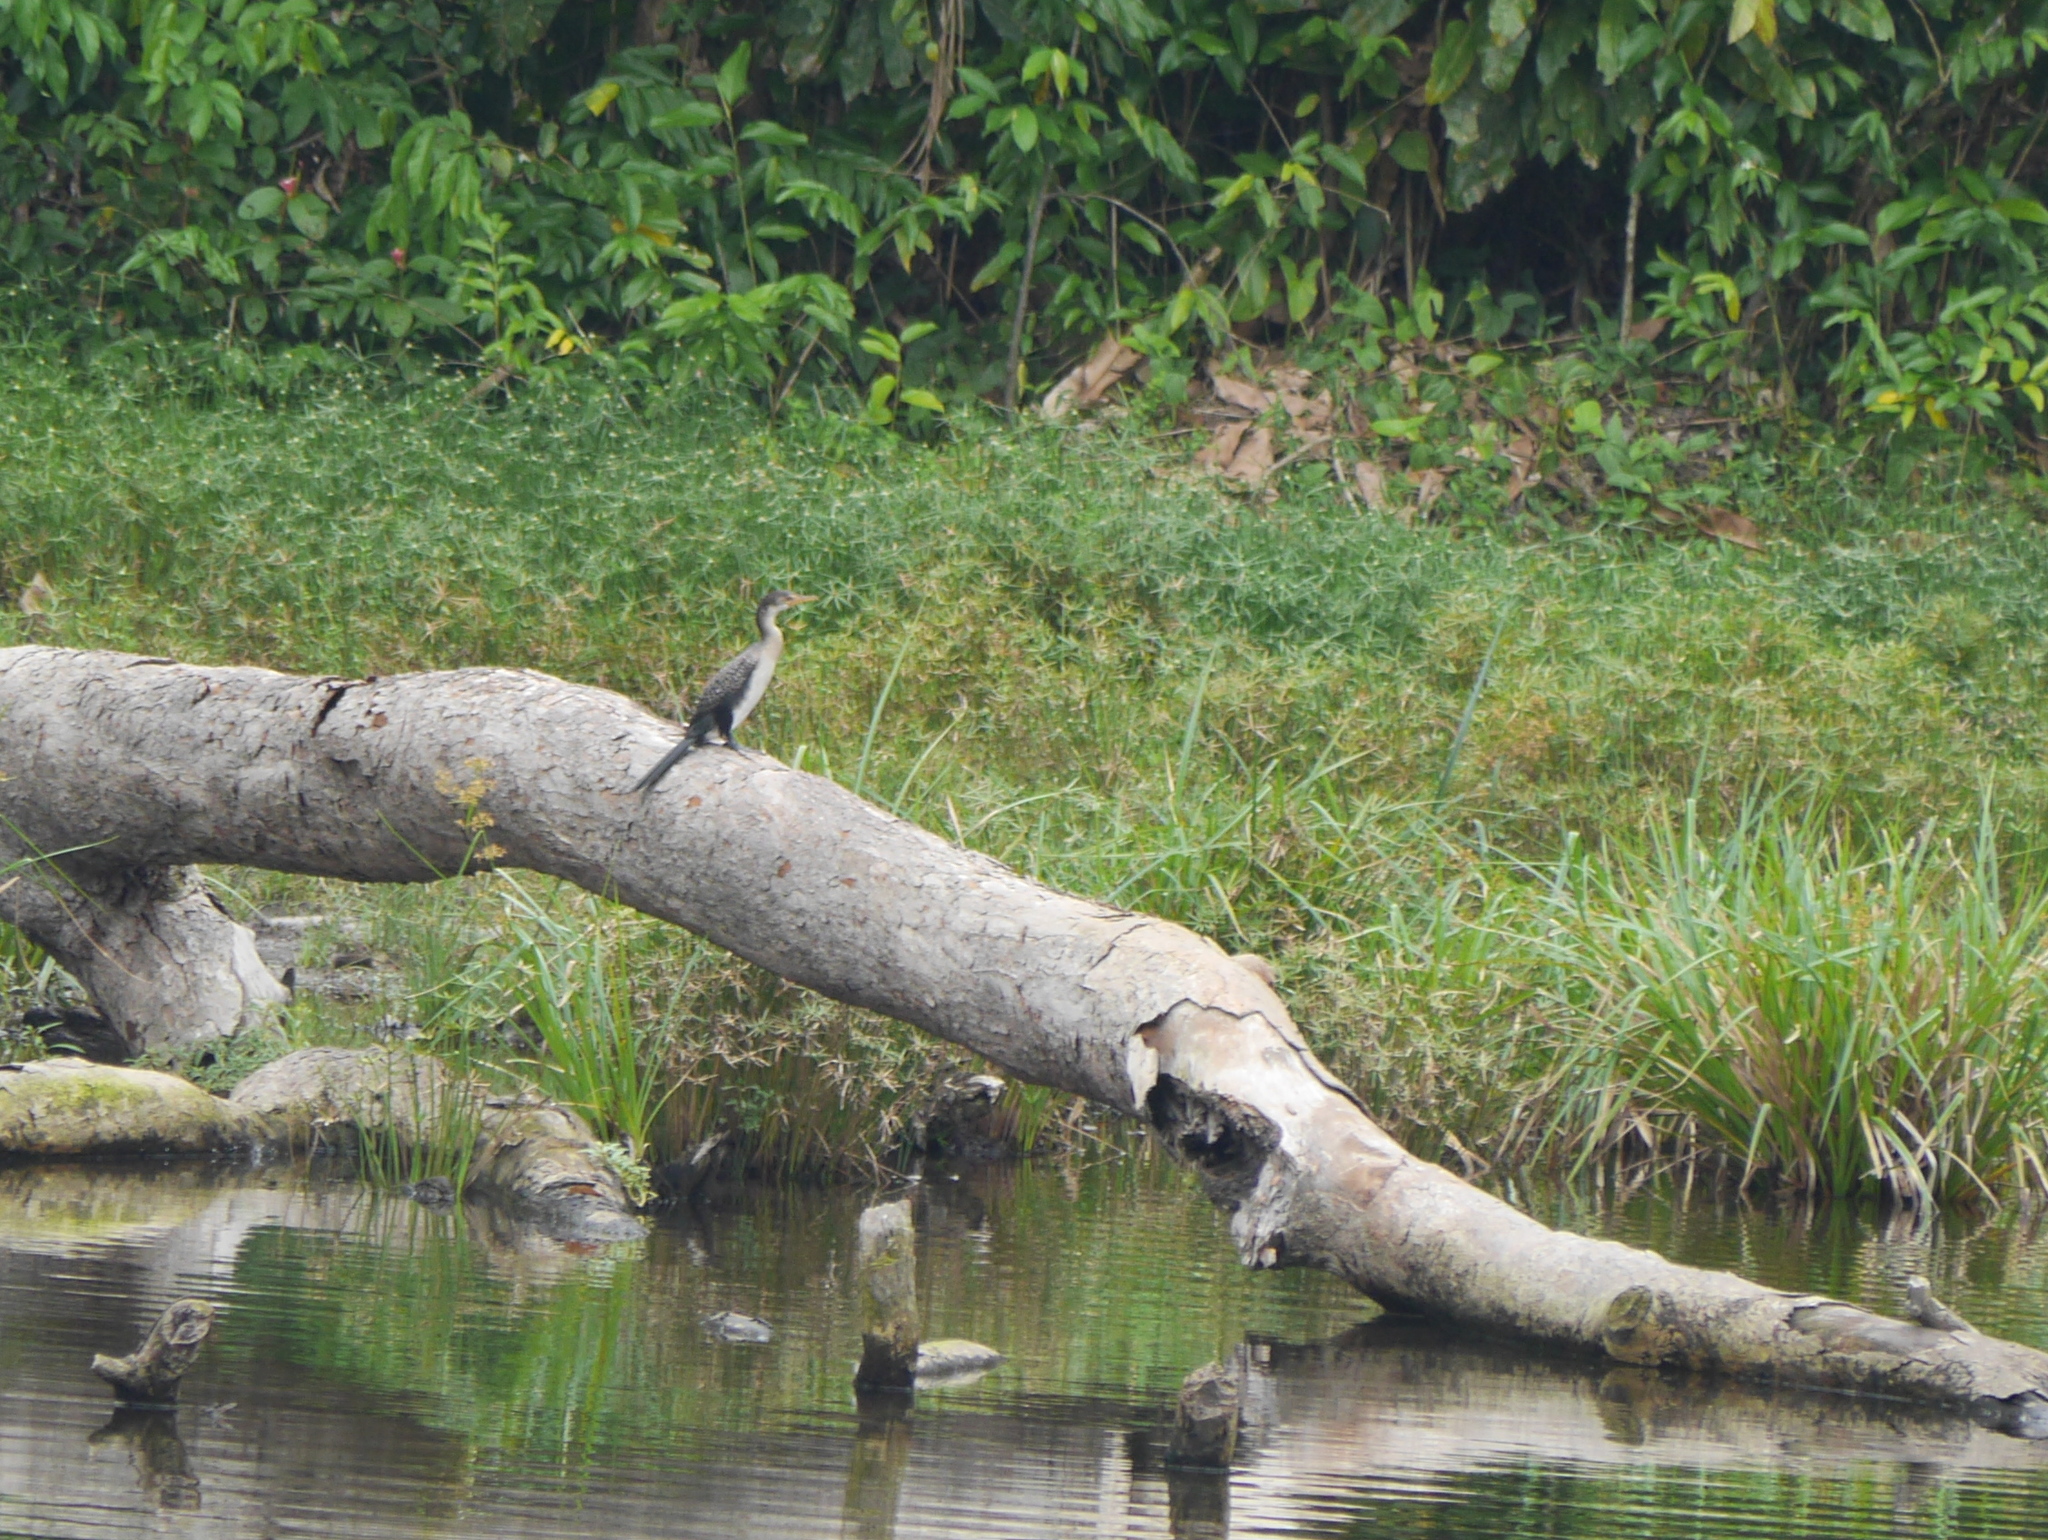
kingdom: Animalia
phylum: Chordata
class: Aves
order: Suliformes
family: Phalacrocoracidae
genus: Microcarbo
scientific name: Microcarbo africanus
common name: Long-tailed cormorant
